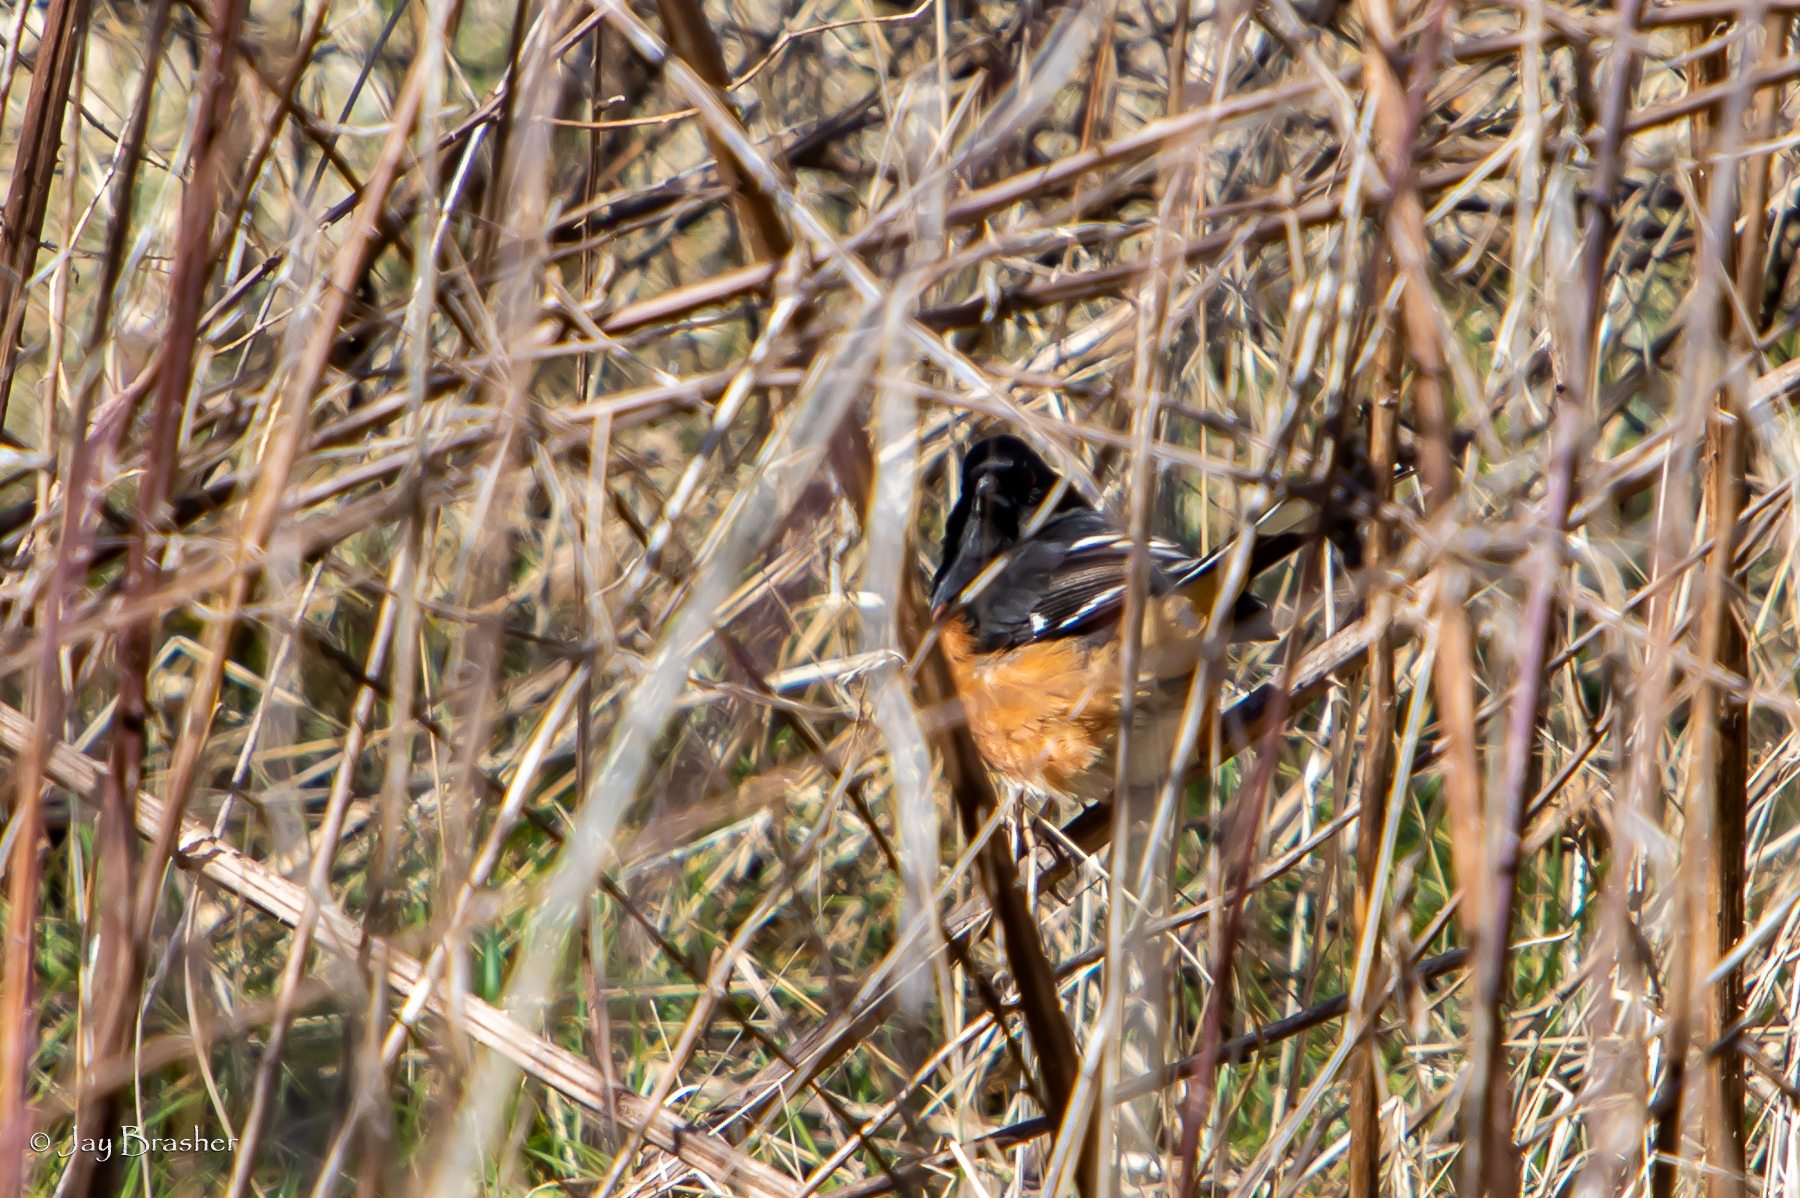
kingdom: Animalia
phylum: Chordata
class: Aves
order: Passeriformes
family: Passerellidae
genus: Pipilo
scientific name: Pipilo erythrophthalmus
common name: Eastern towhee
